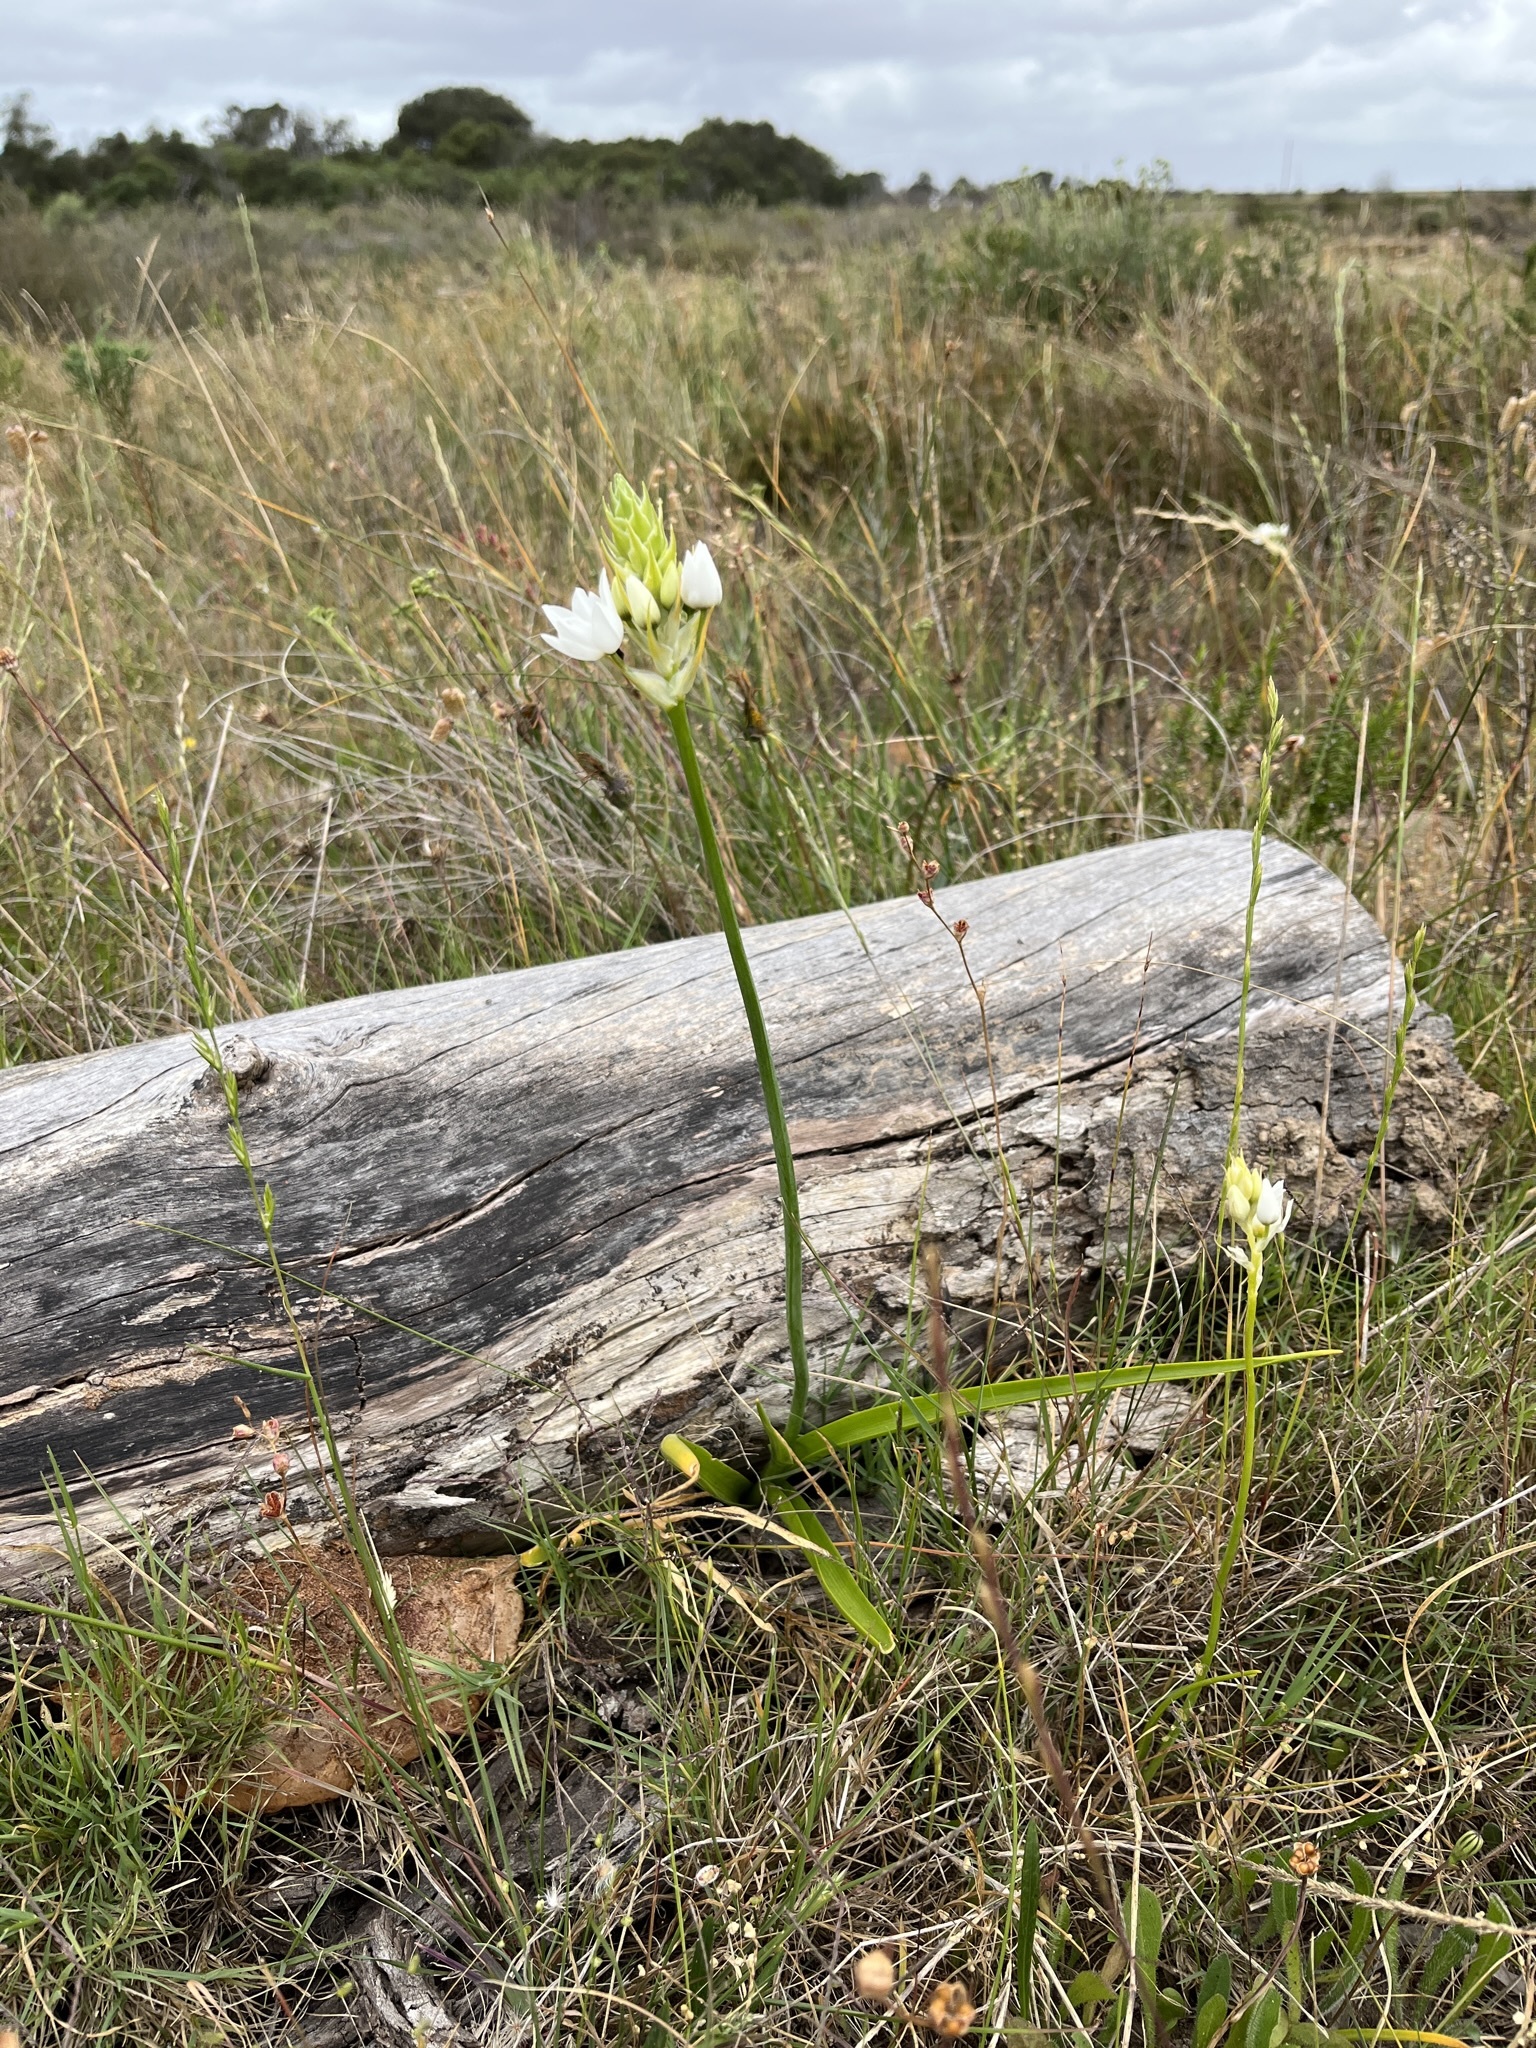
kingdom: Plantae
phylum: Tracheophyta
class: Liliopsida
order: Asparagales
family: Asparagaceae
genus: Ornithogalum
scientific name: Ornithogalum thyrsoides
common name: Chincherinchee
